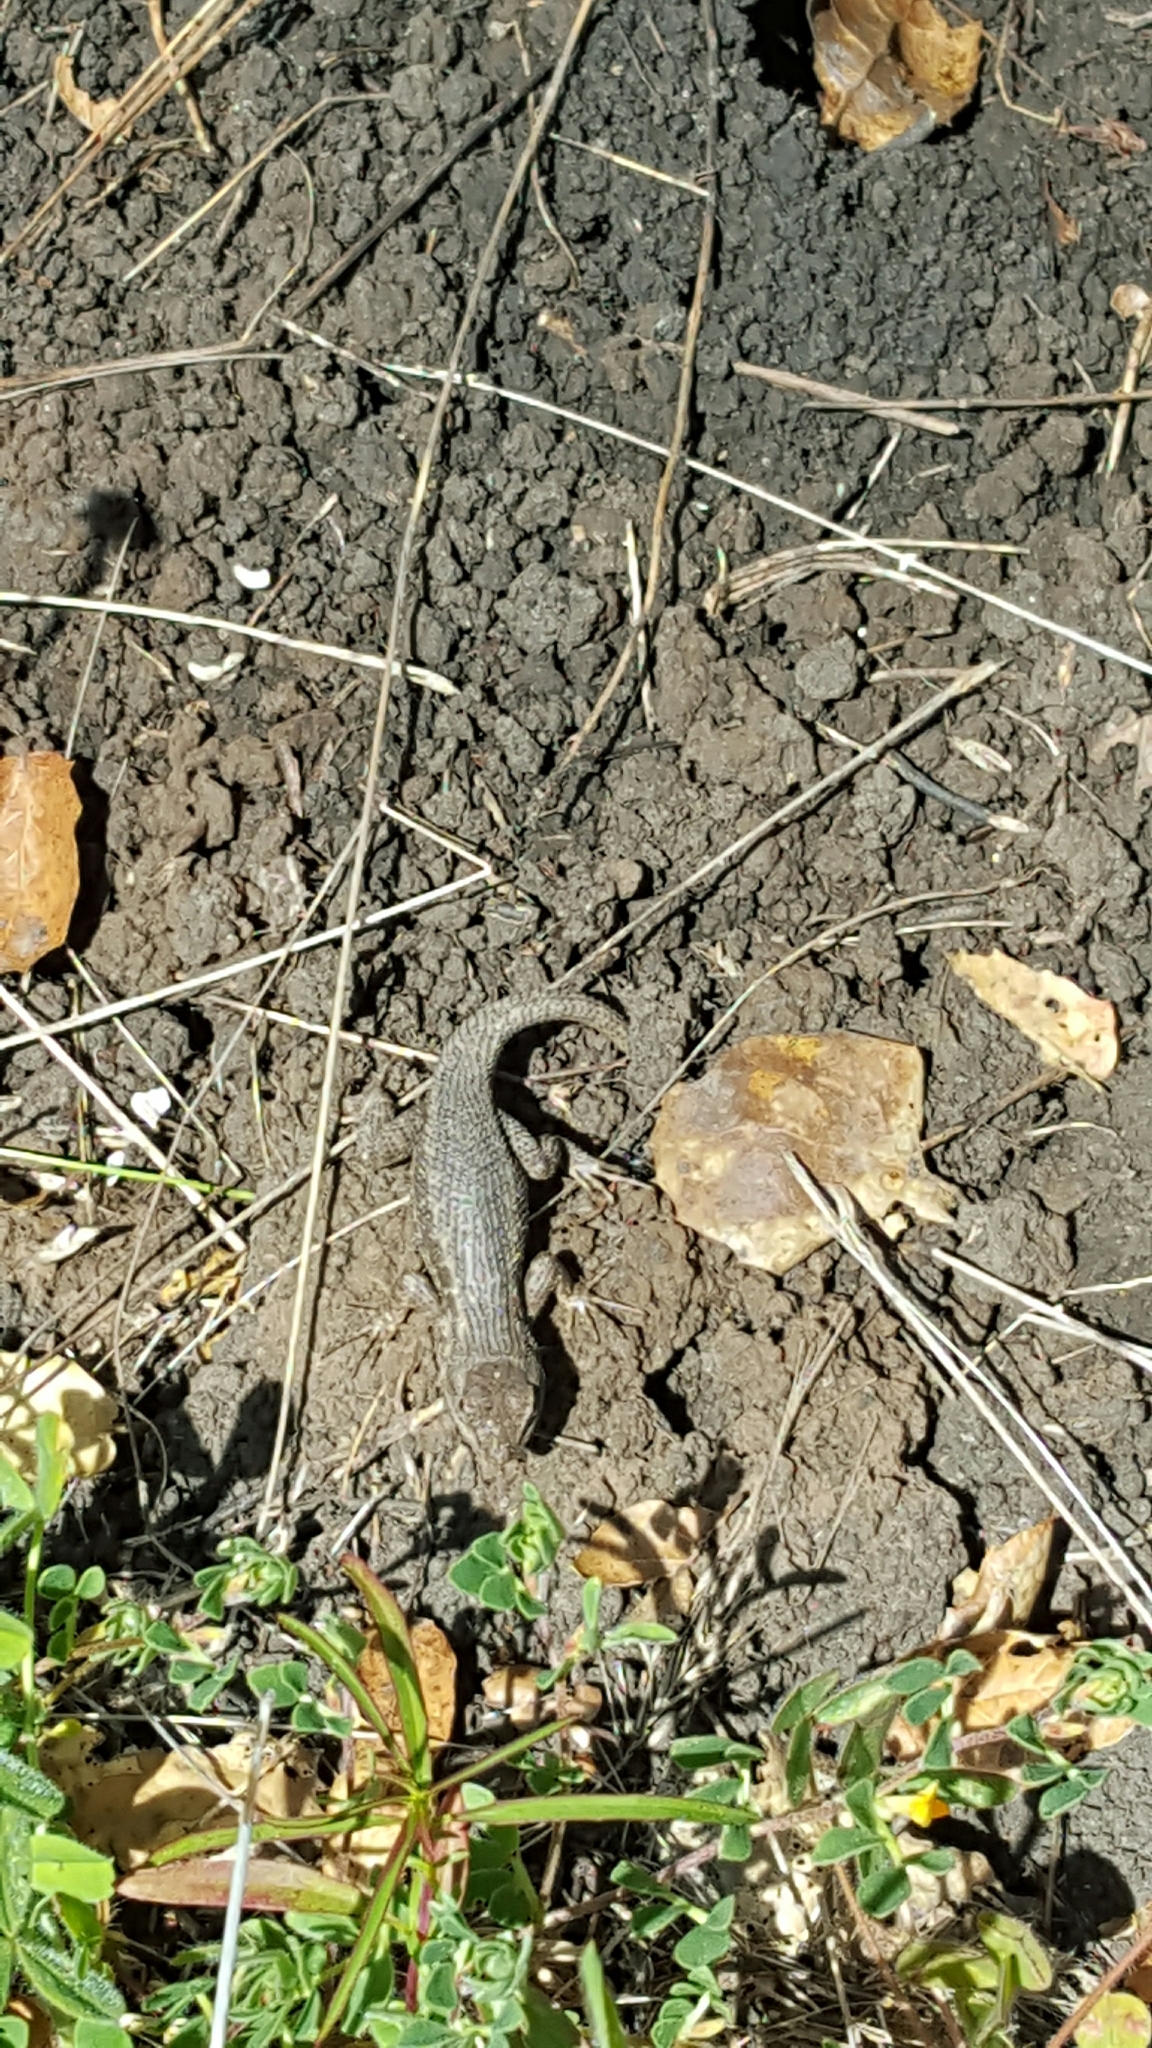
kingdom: Animalia
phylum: Chordata
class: Squamata
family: Phrynosomatidae
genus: Sceloporus
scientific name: Sceloporus occidentalis
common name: Western fence lizard
